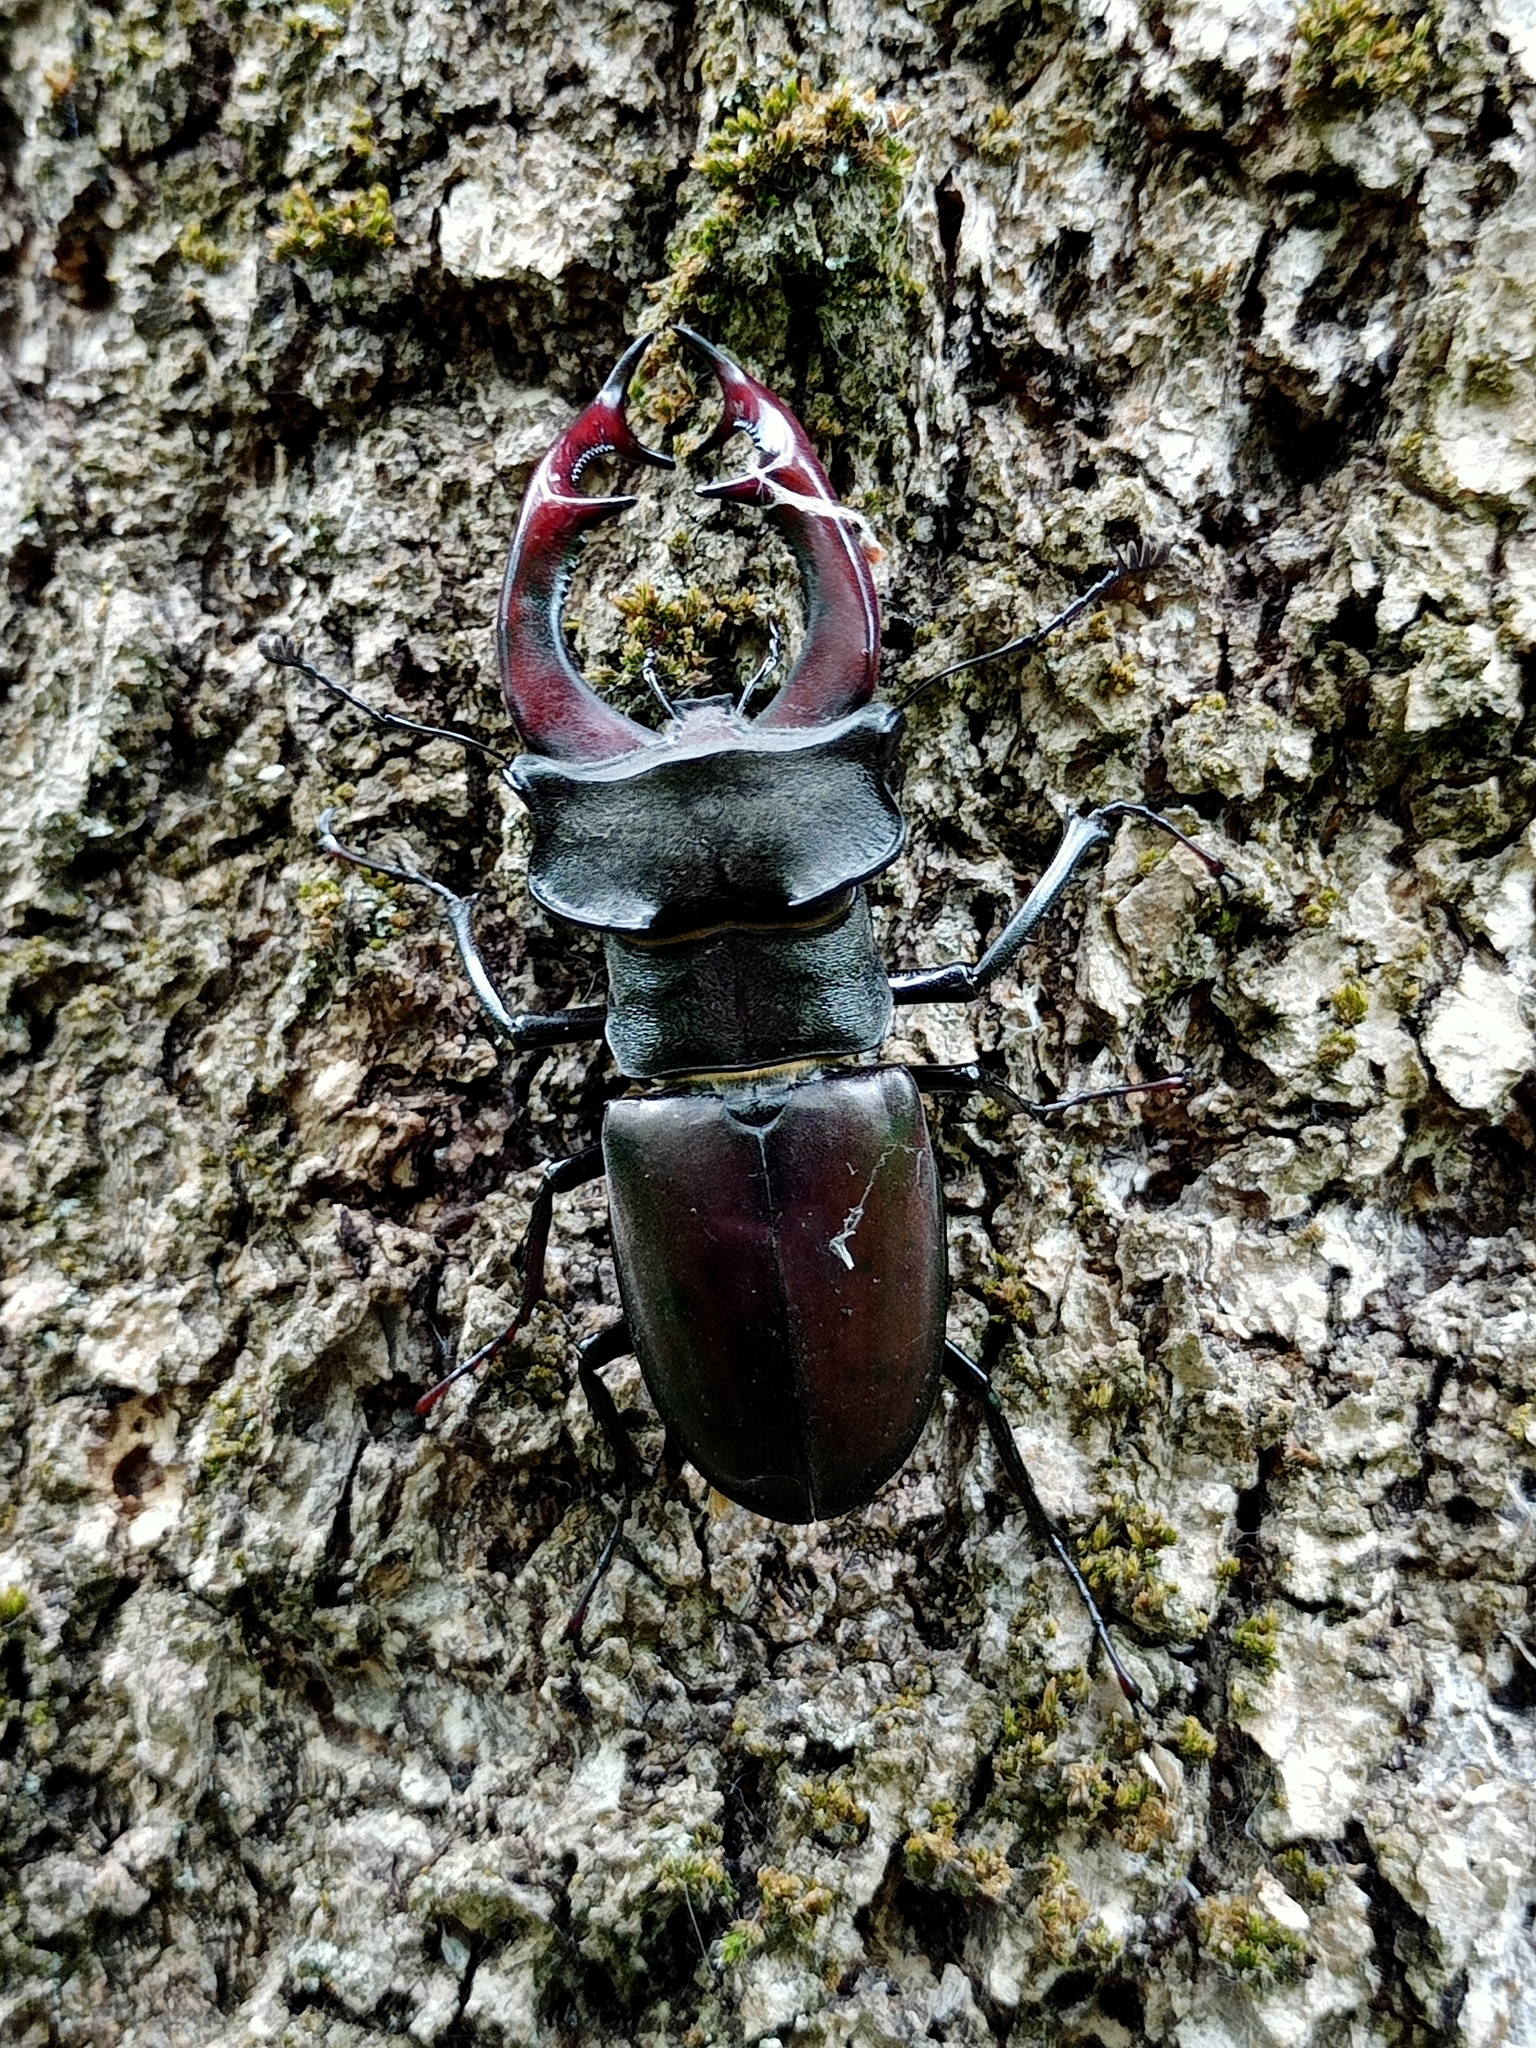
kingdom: Animalia
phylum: Arthropoda
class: Insecta
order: Coleoptera
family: Lucanidae
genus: Lucanus
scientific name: Lucanus cervus
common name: Stag beetle
